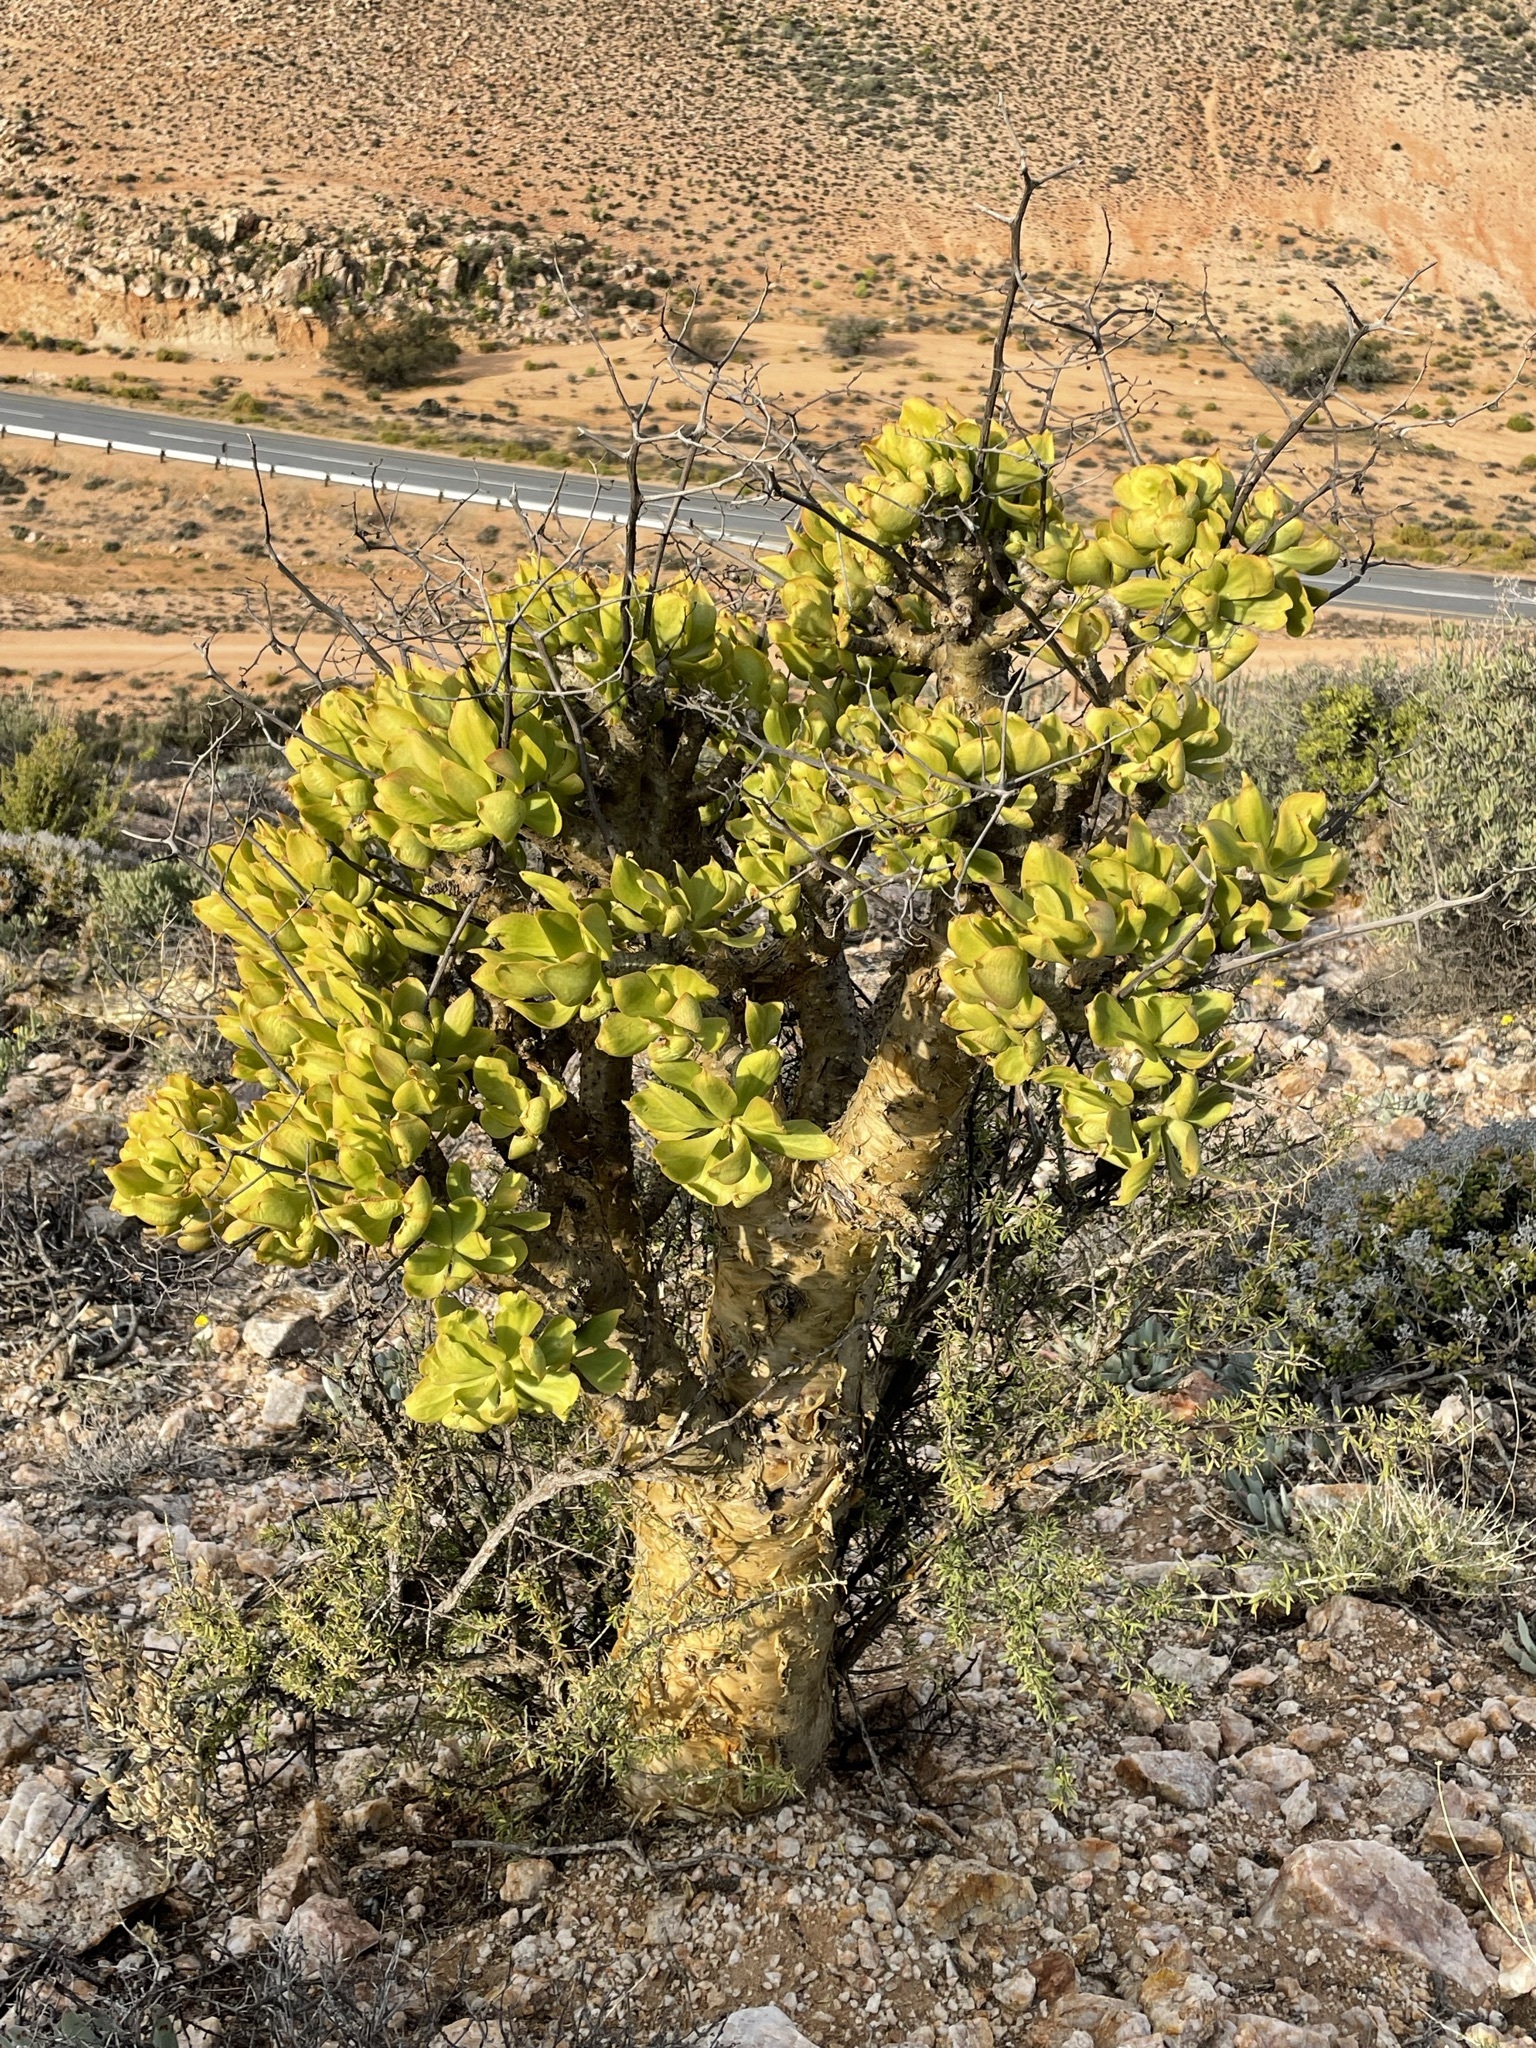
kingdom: Plantae
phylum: Tracheophyta
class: Magnoliopsida
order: Saxifragales
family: Crassulaceae
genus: Tylecodon
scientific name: Tylecodon paniculatus
